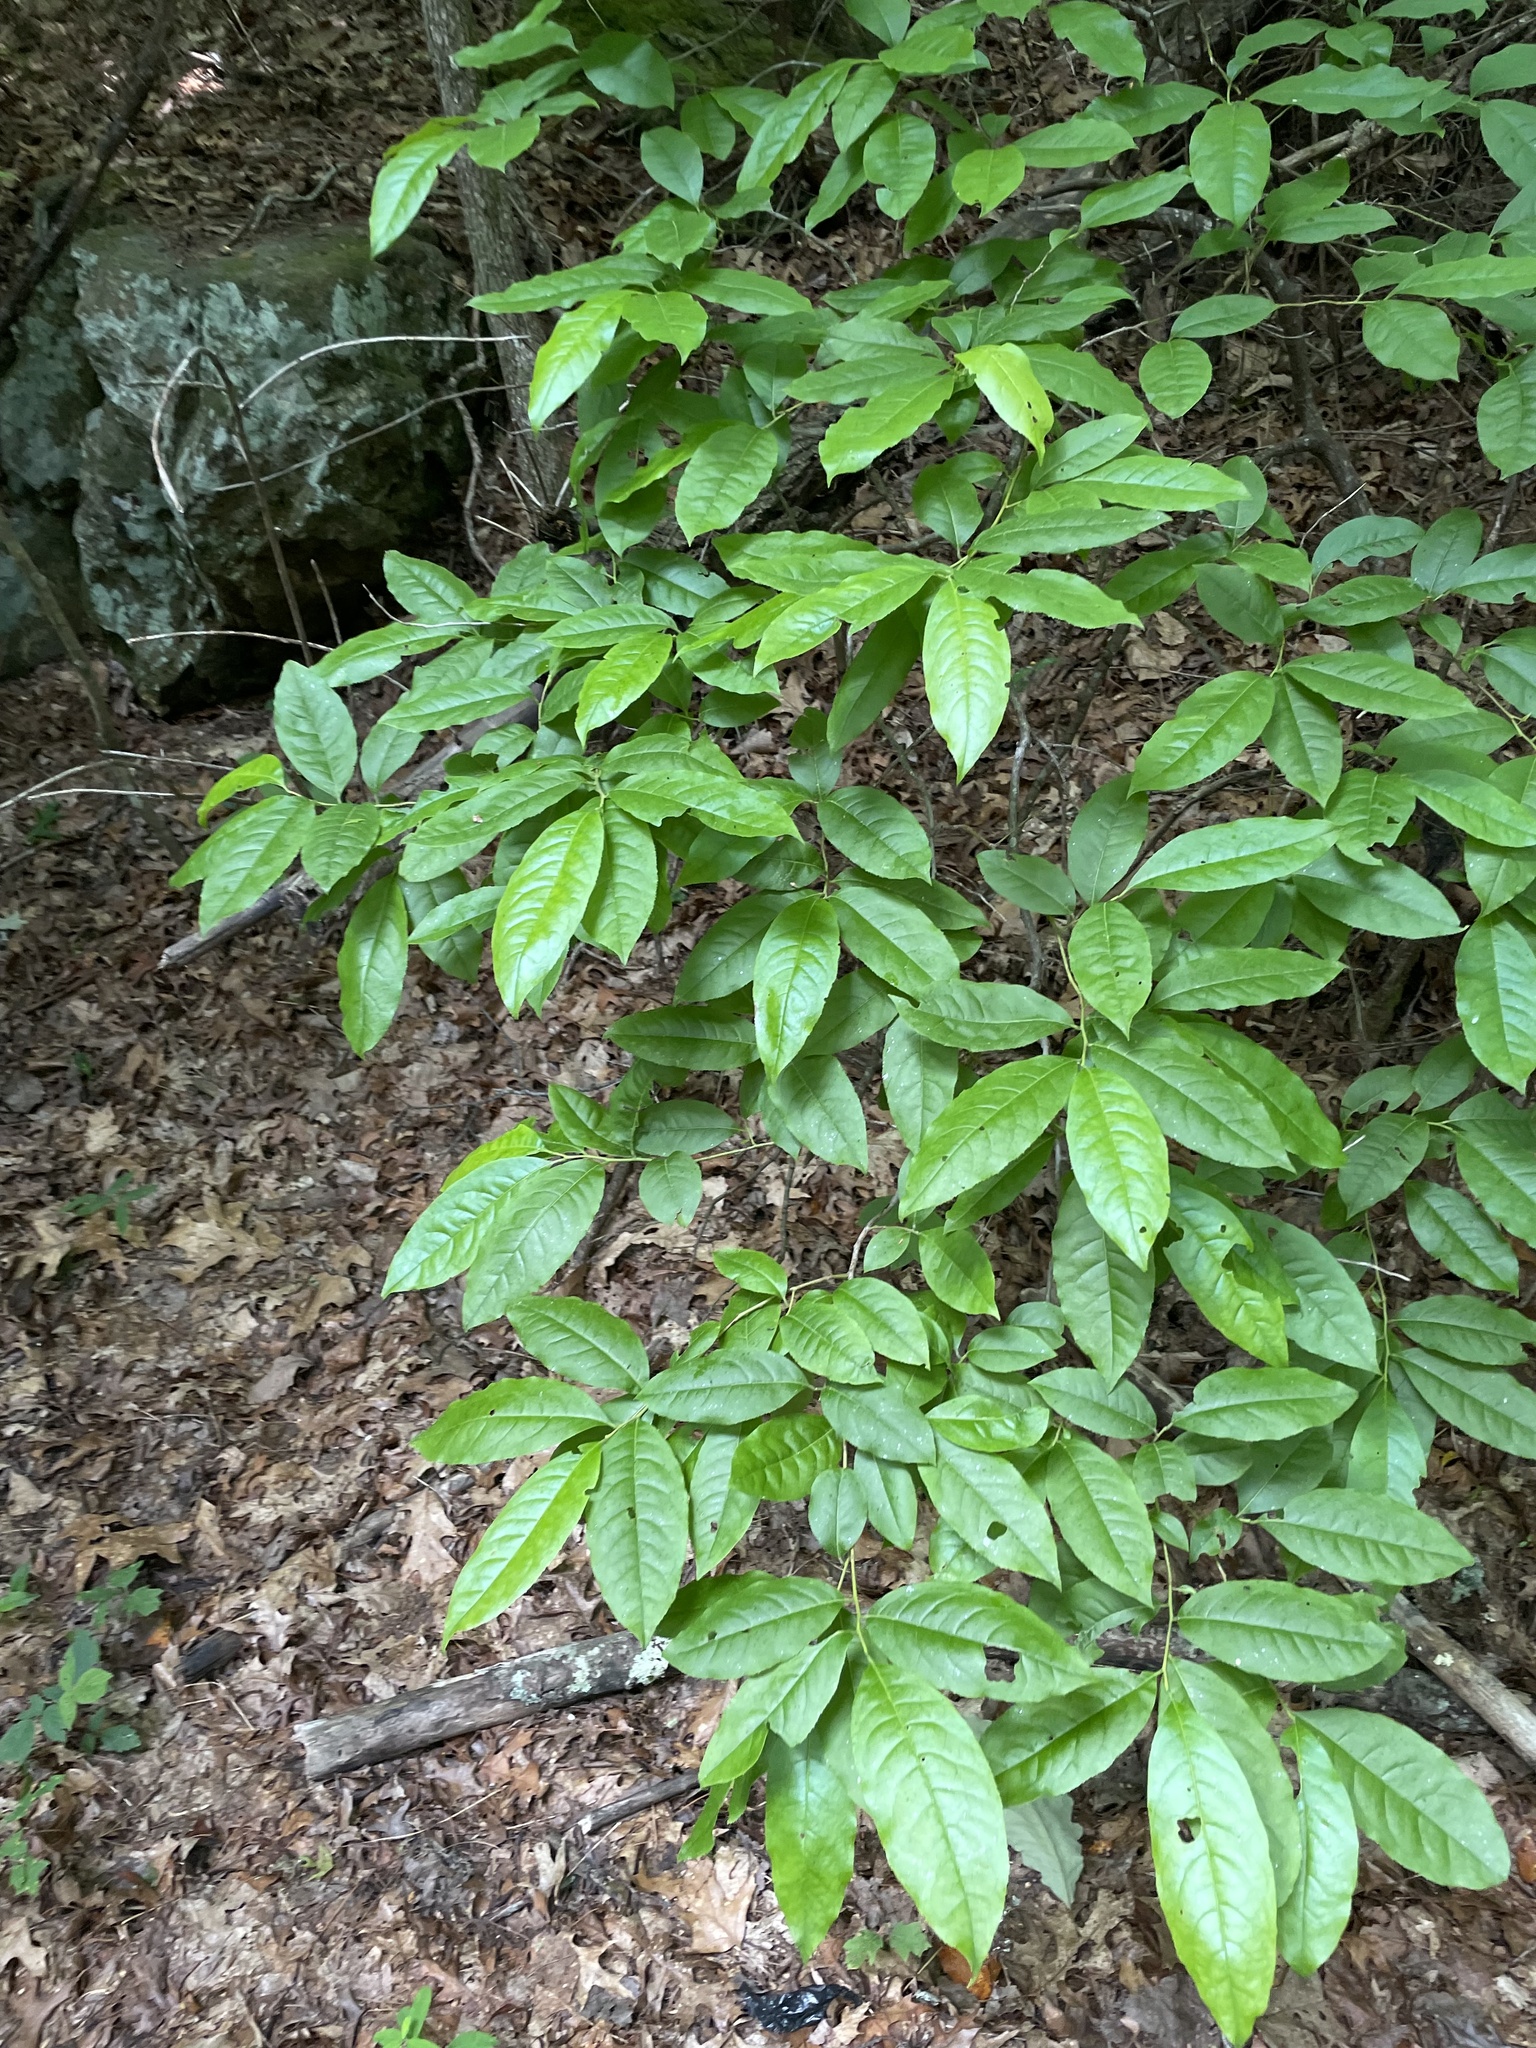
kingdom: Plantae
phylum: Tracheophyta
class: Magnoliopsida
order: Ericales
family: Ericaceae
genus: Oxydendrum
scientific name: Oxydendrum arboreum
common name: Sourwood
